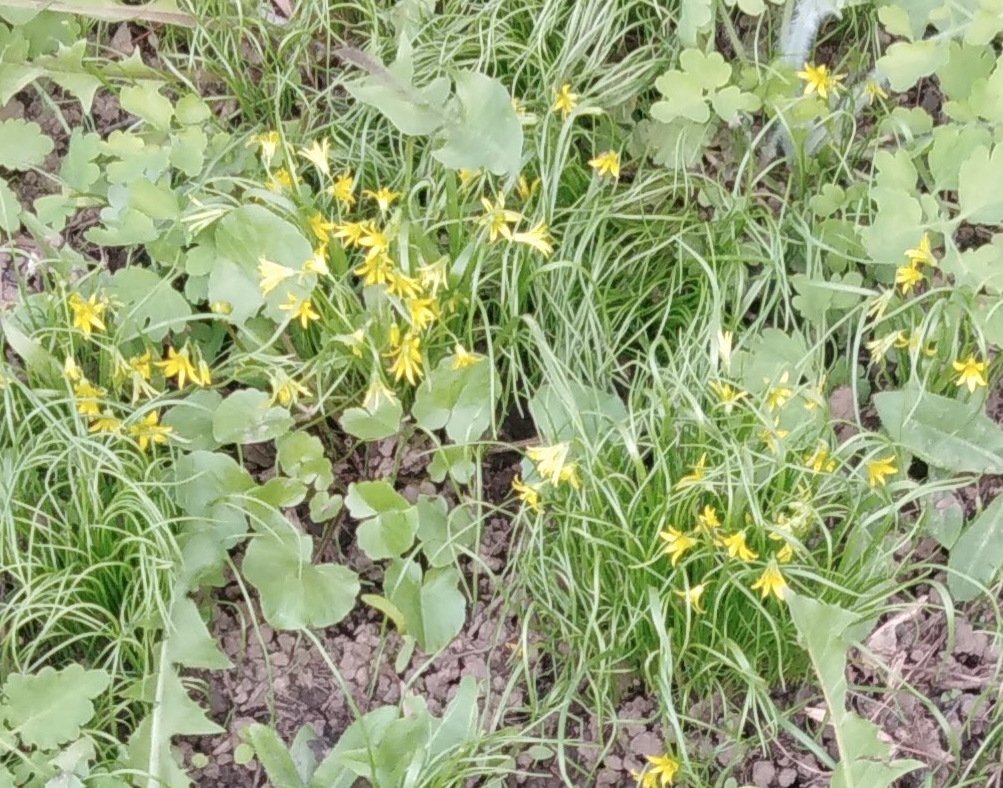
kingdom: Plantae
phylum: Tracheophyta
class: Liliopsida
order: Liliales
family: Liliaceae
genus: Gagea
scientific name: Gagea minima
